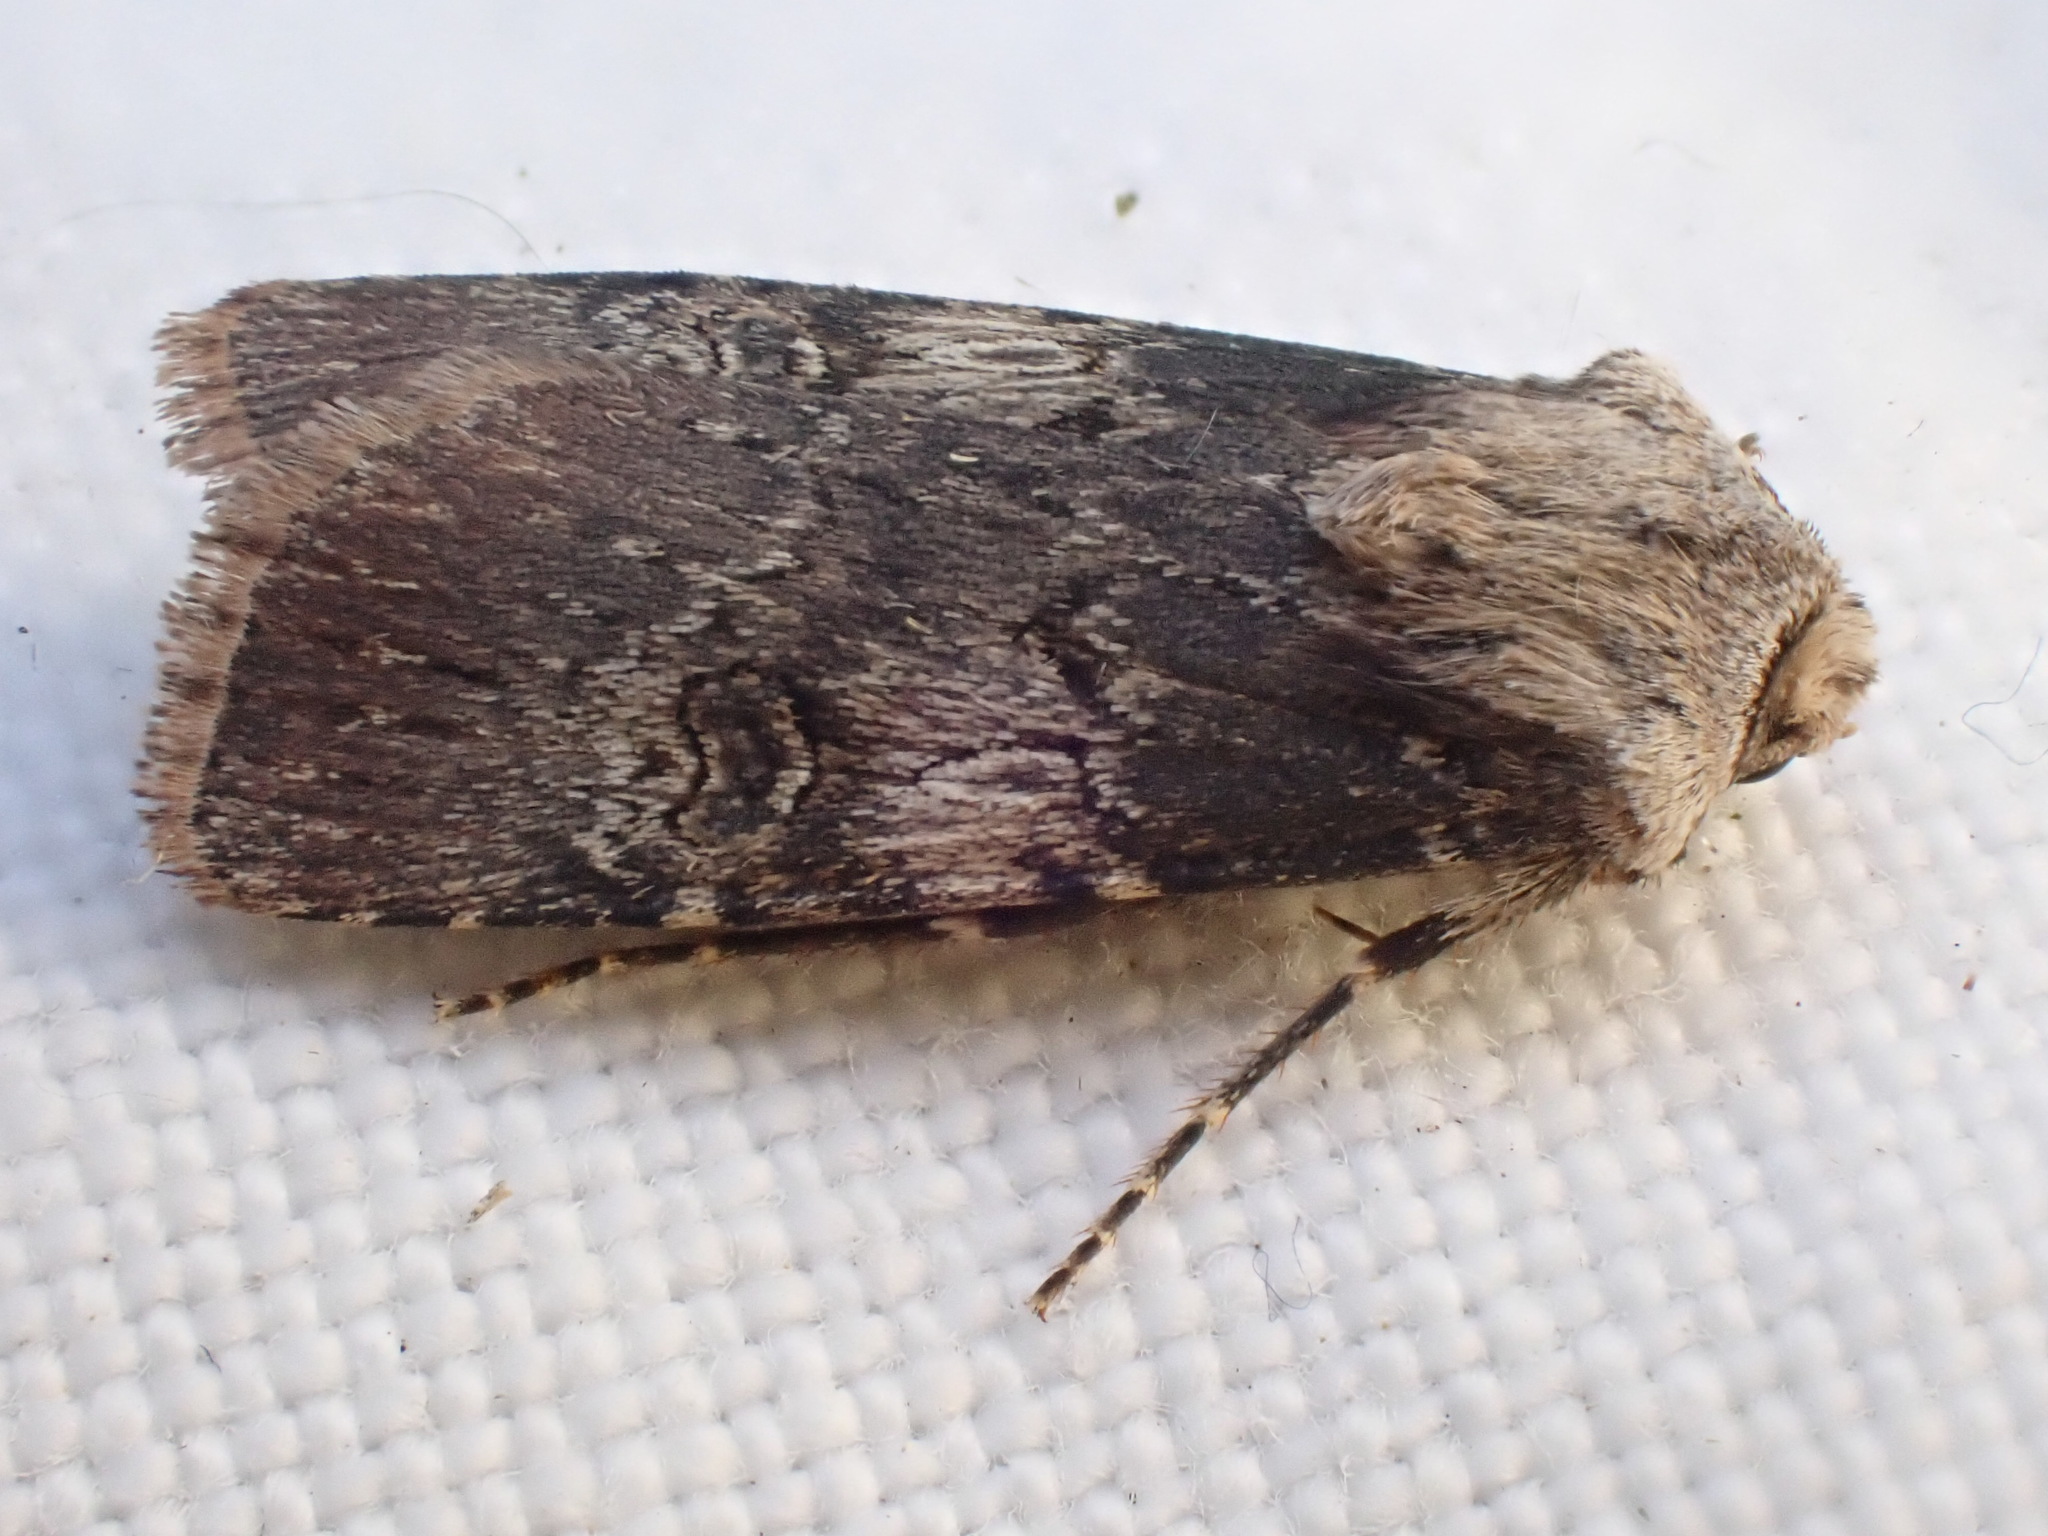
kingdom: Animalia
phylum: Arthropoda
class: Insecta
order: Lepidoptera
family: Noctuidae
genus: Agrotis
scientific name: Agrotis puta
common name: Shuttle-shaped dart
